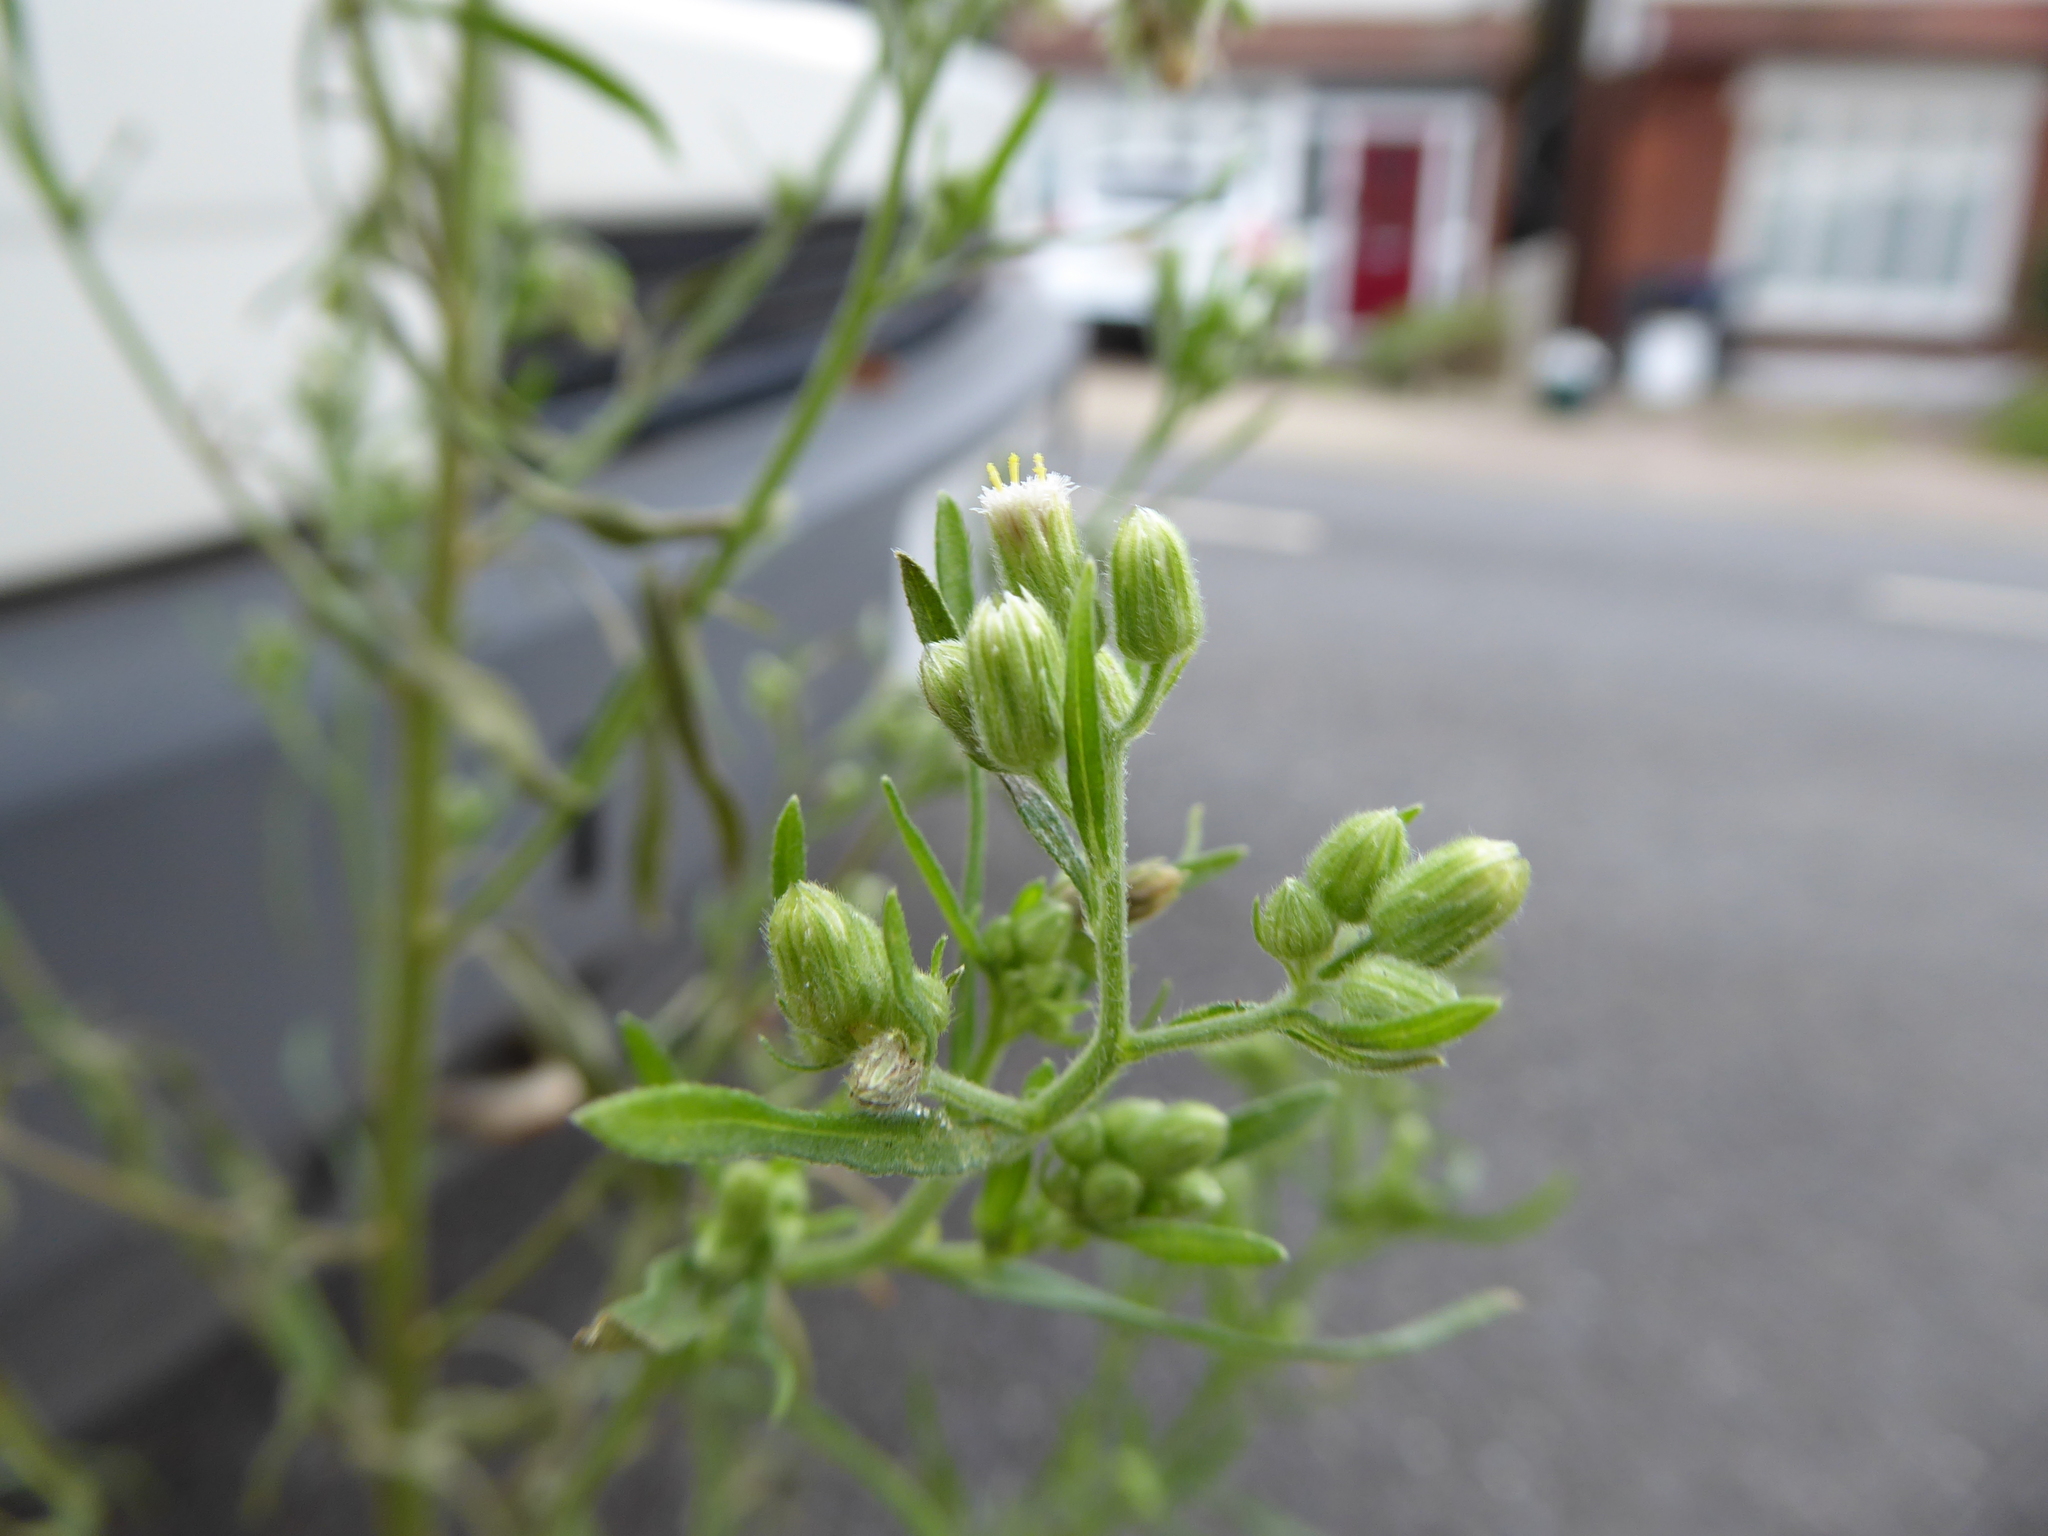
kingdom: Plantae
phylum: Tracheophyta
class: Magnoliopsida
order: Asterales
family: Asteraceae
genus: Erigeron
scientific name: Erigeron sumatrensis
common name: Daisy
